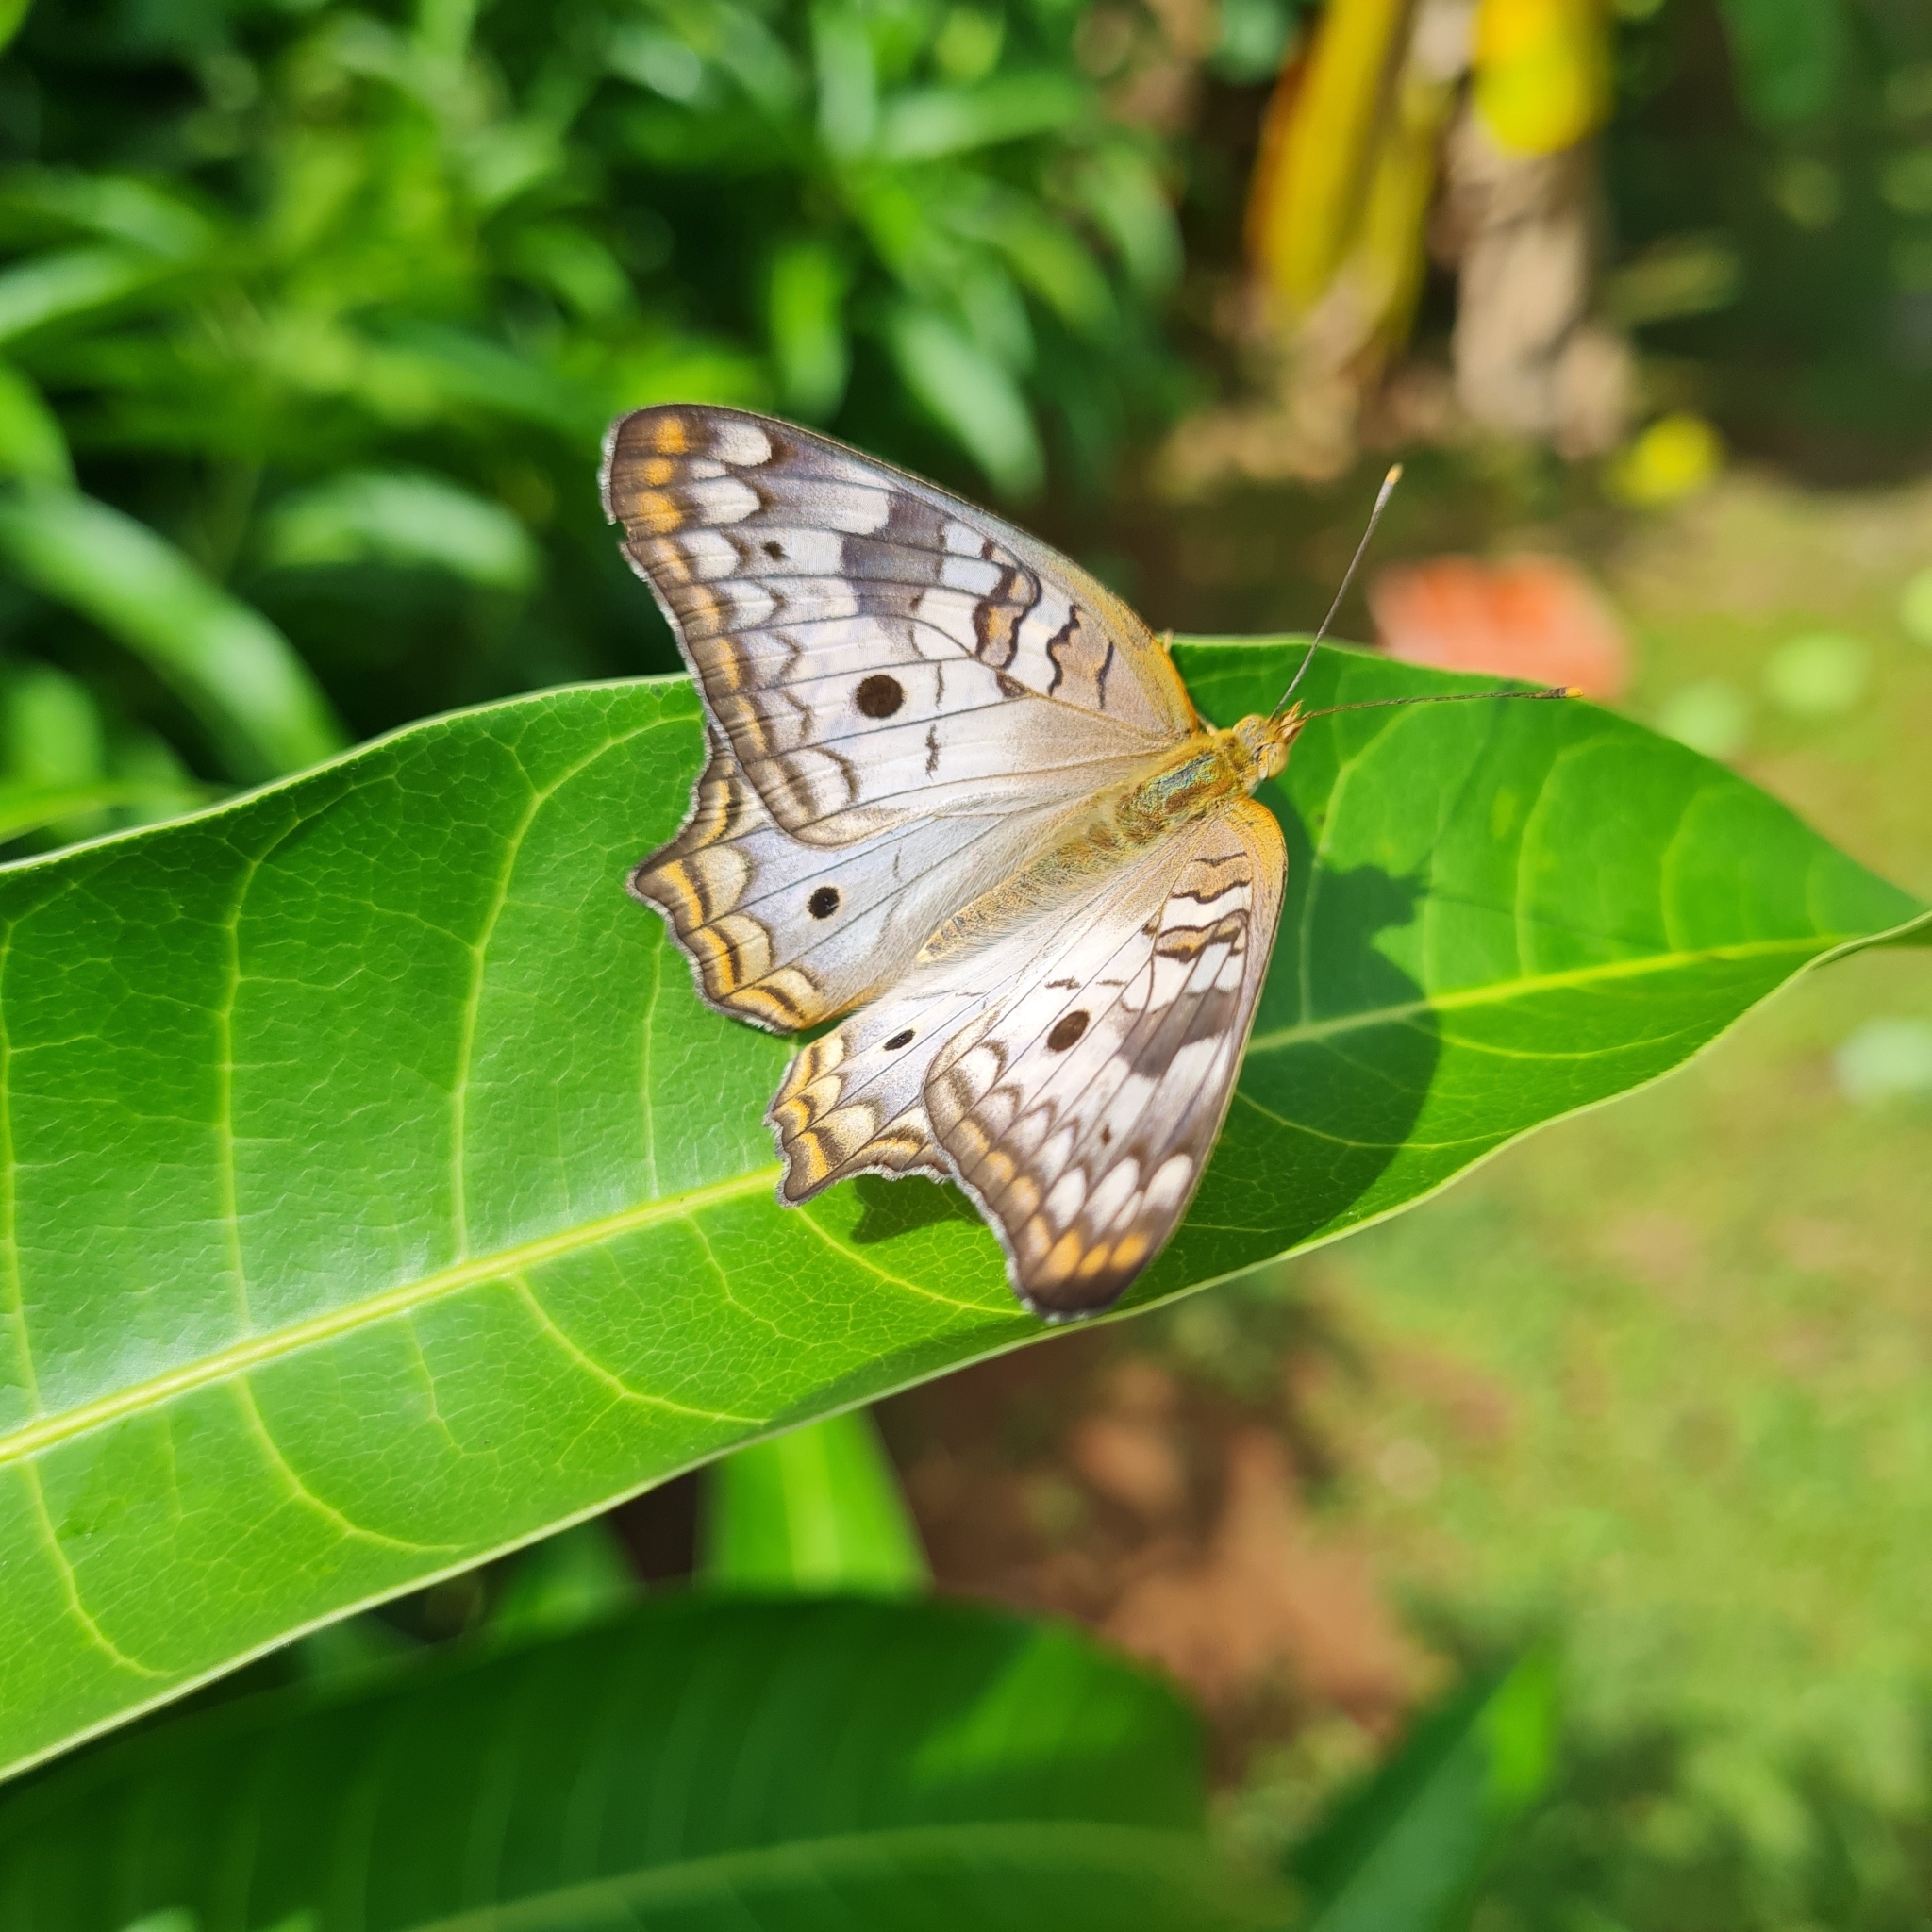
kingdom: Animalia
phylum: Arthropoda
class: Insecta
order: Lepidoptera
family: Nymphalidae
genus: Anartia
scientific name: Anartia jatrophae
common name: White peacock
